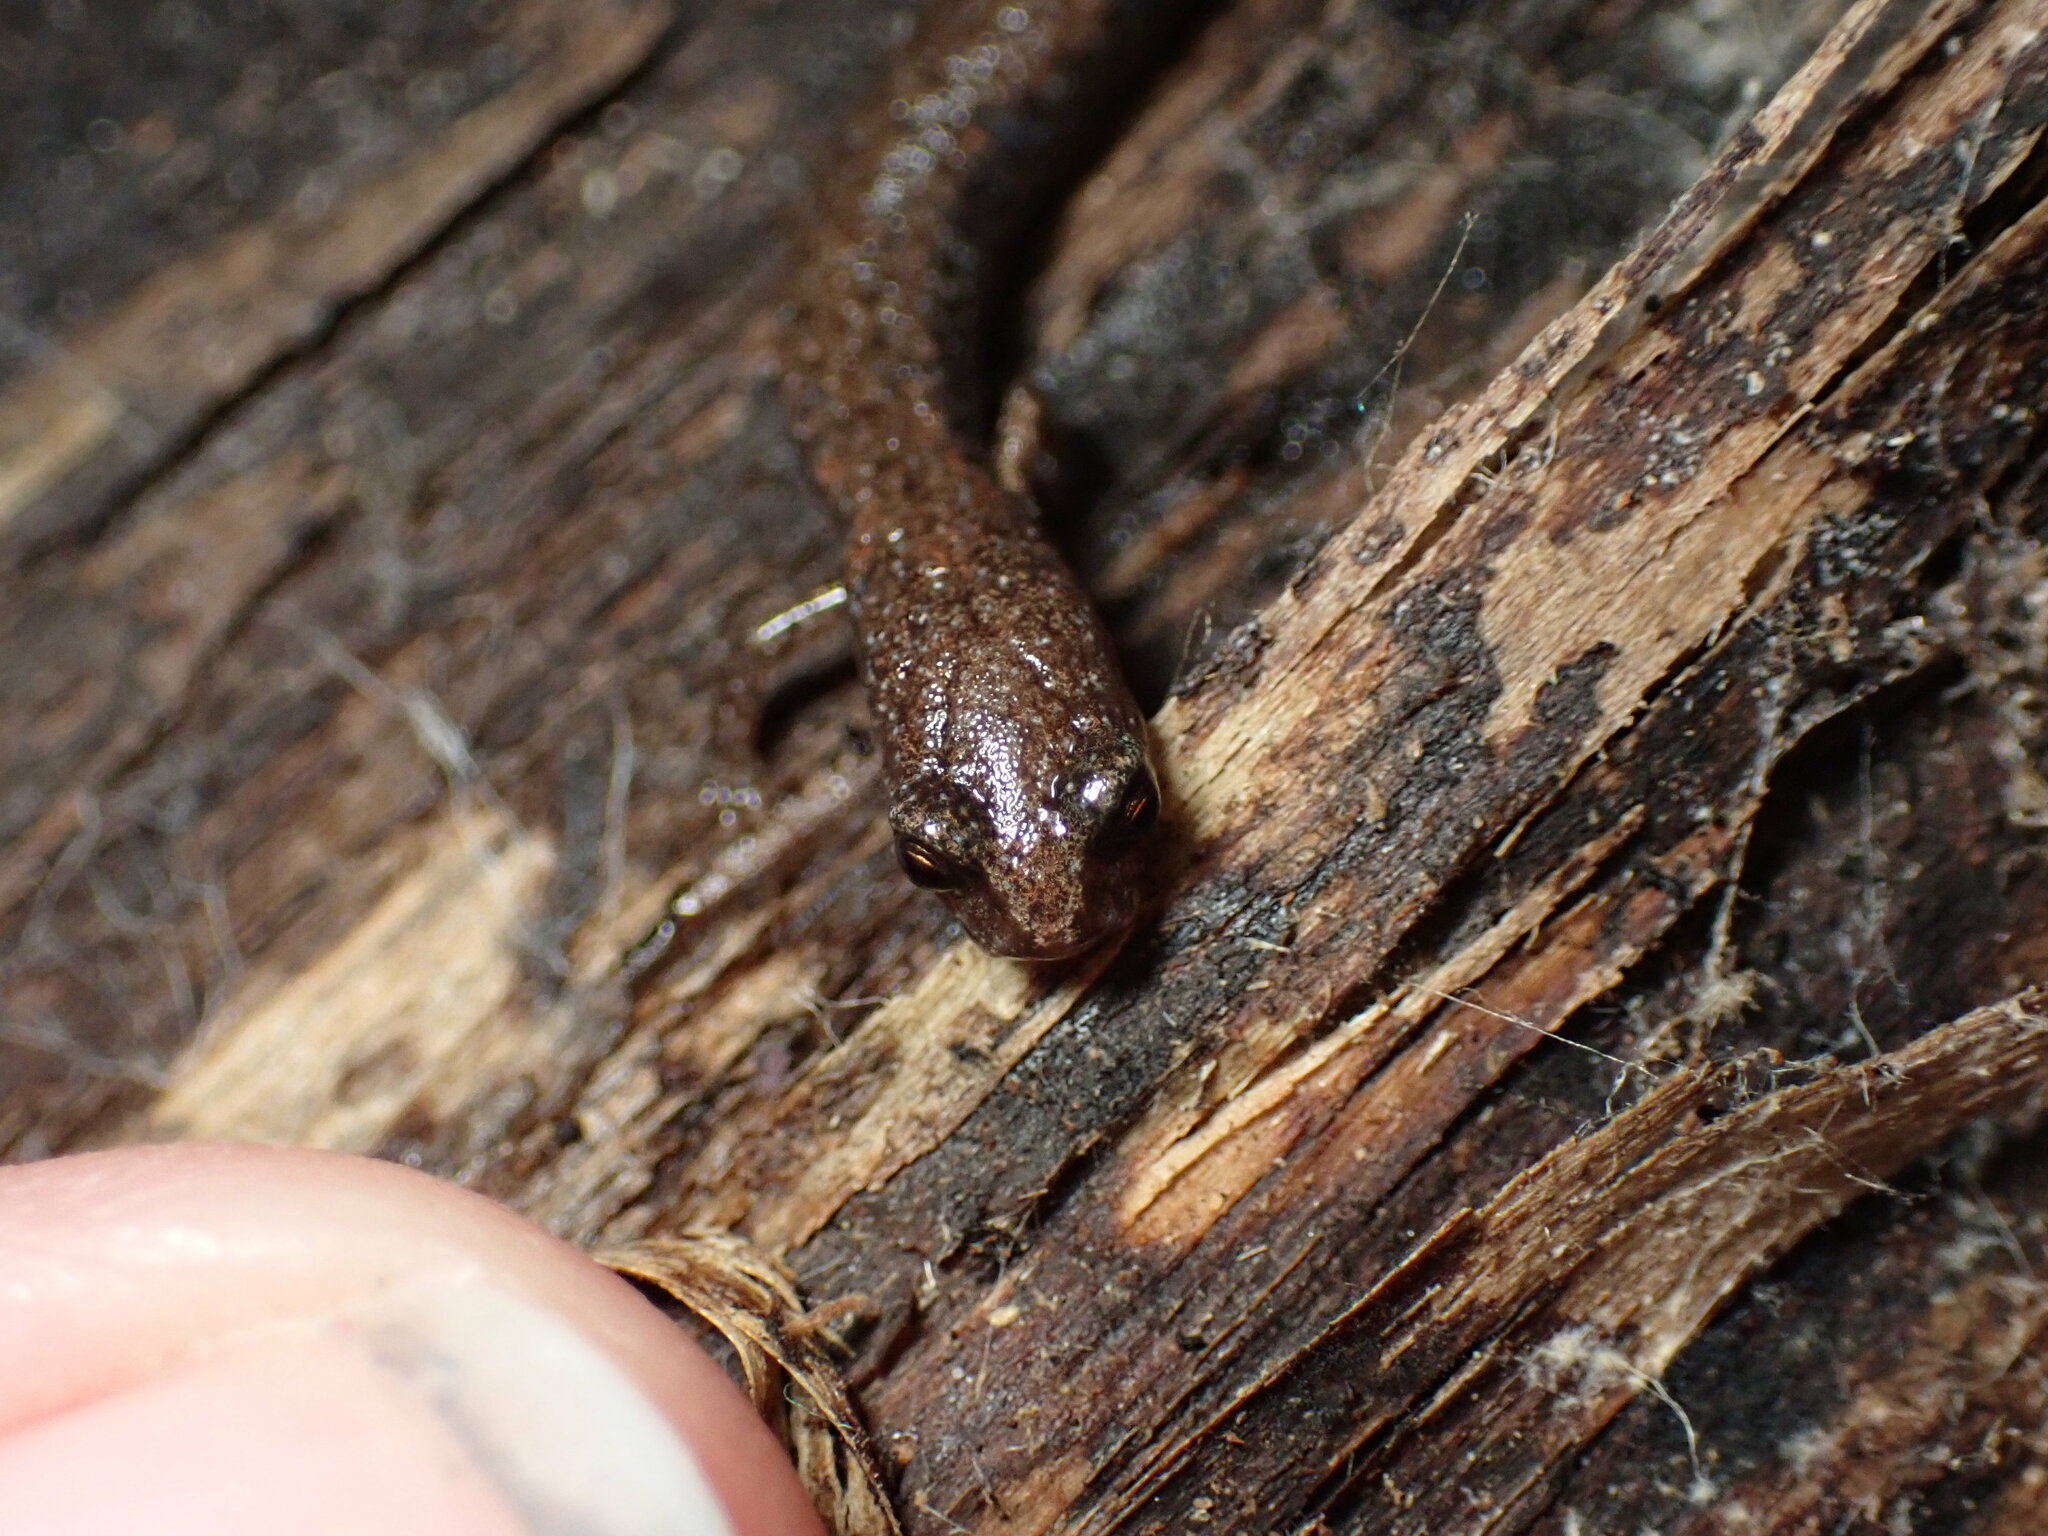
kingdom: Animalia
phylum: Chordata
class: Amphibia
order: Caudata
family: Plethodontidae
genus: Batrachoseps
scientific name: Batrachoseps nigriventris
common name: Black-bellied slender salamander
